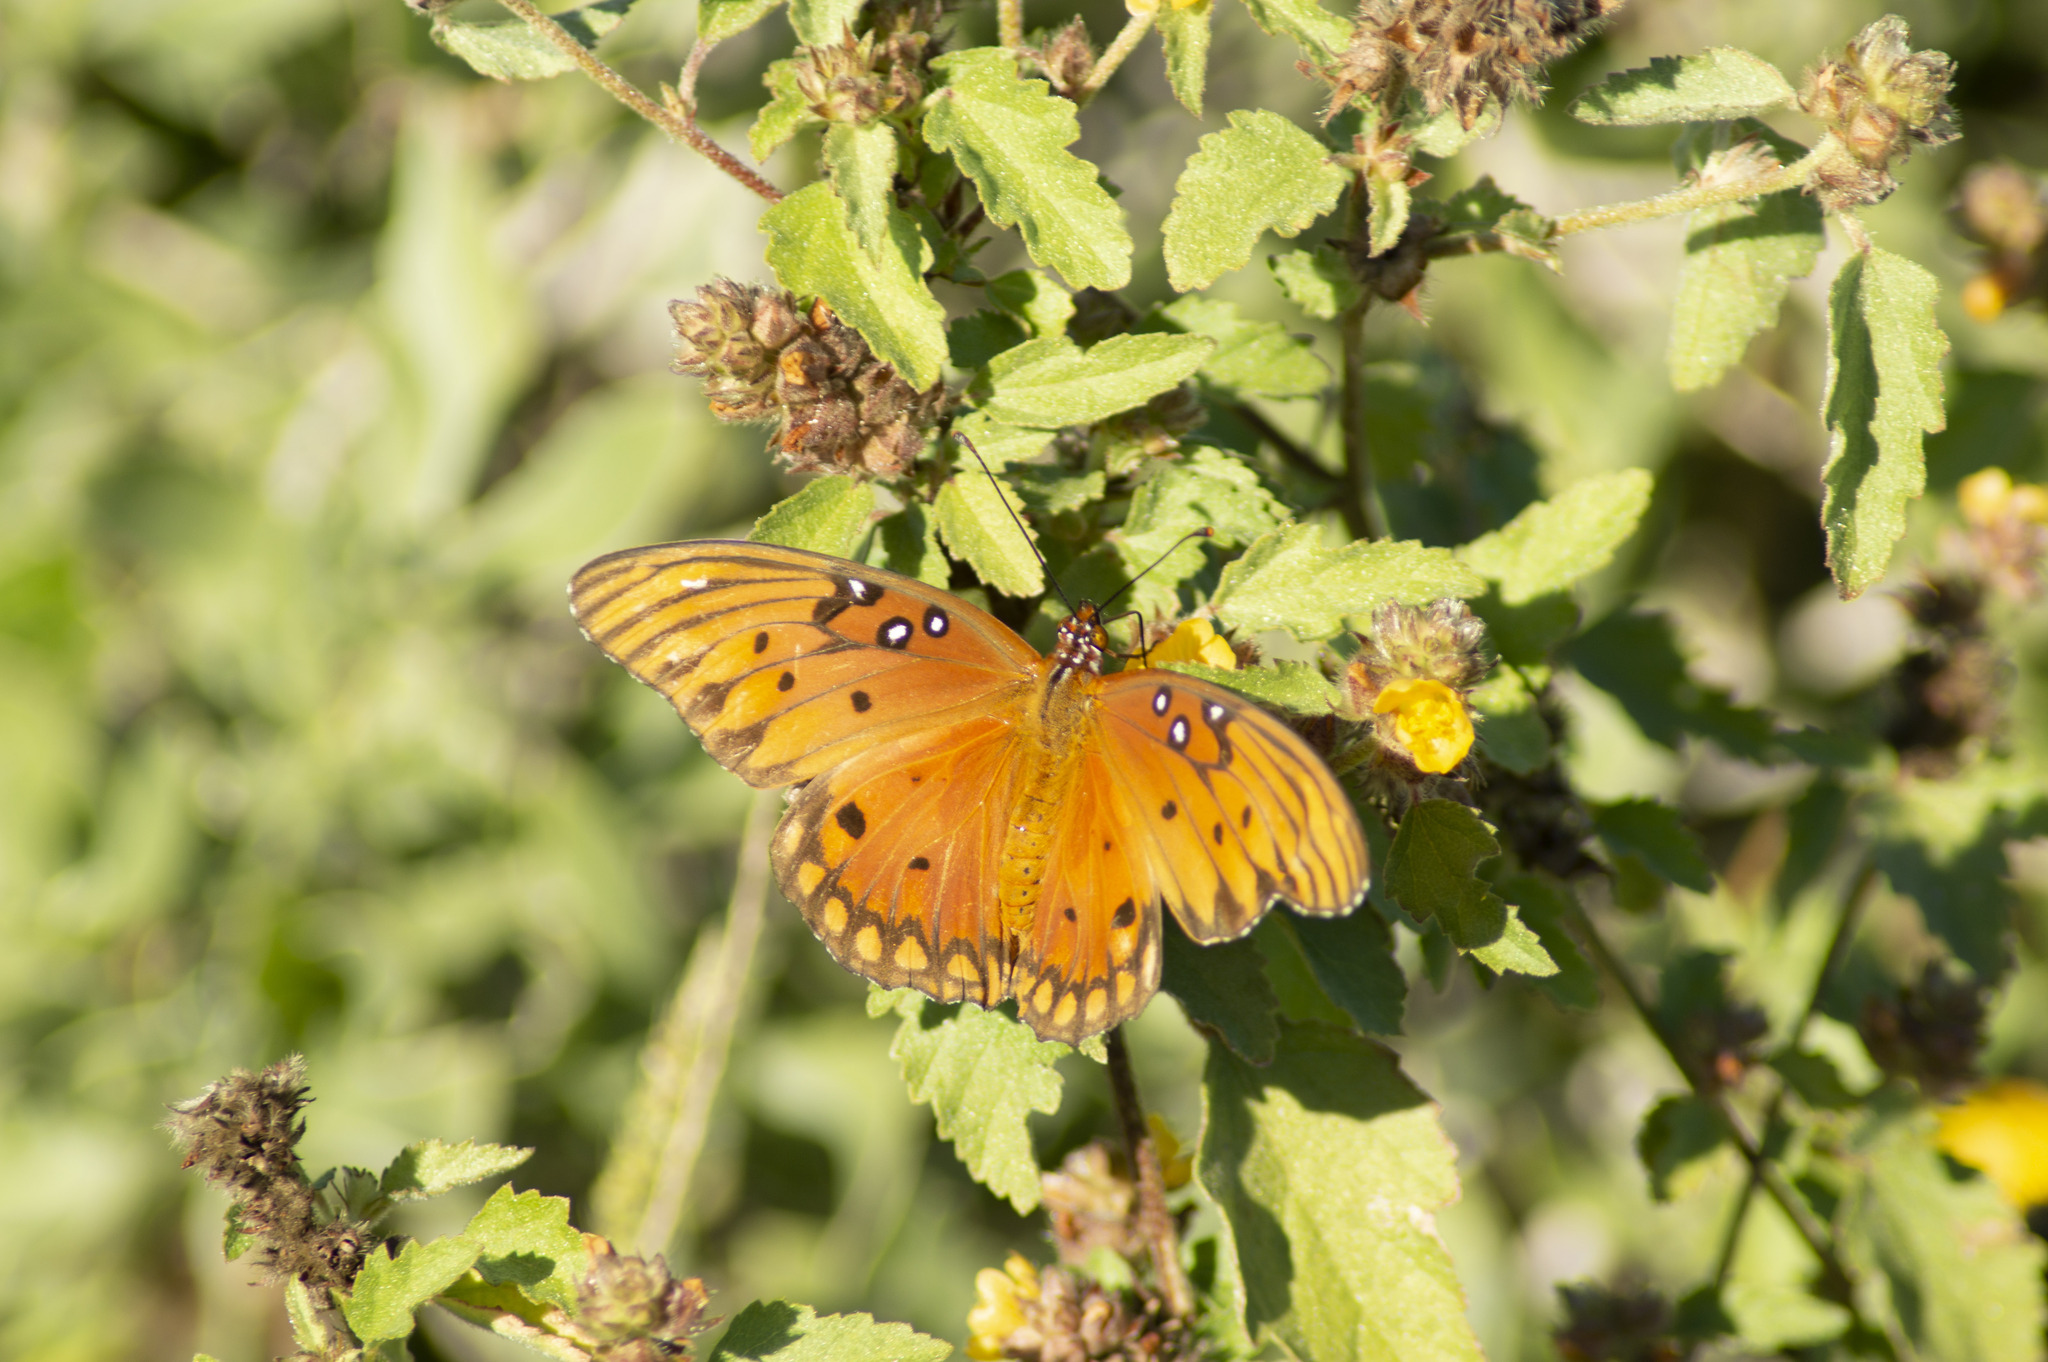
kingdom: Animalia
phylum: Arthropoda
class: Insecta
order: Lepidoptera
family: Nymphalidae
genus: Dione
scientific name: Dione vanillae
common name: Gulf fritillary
